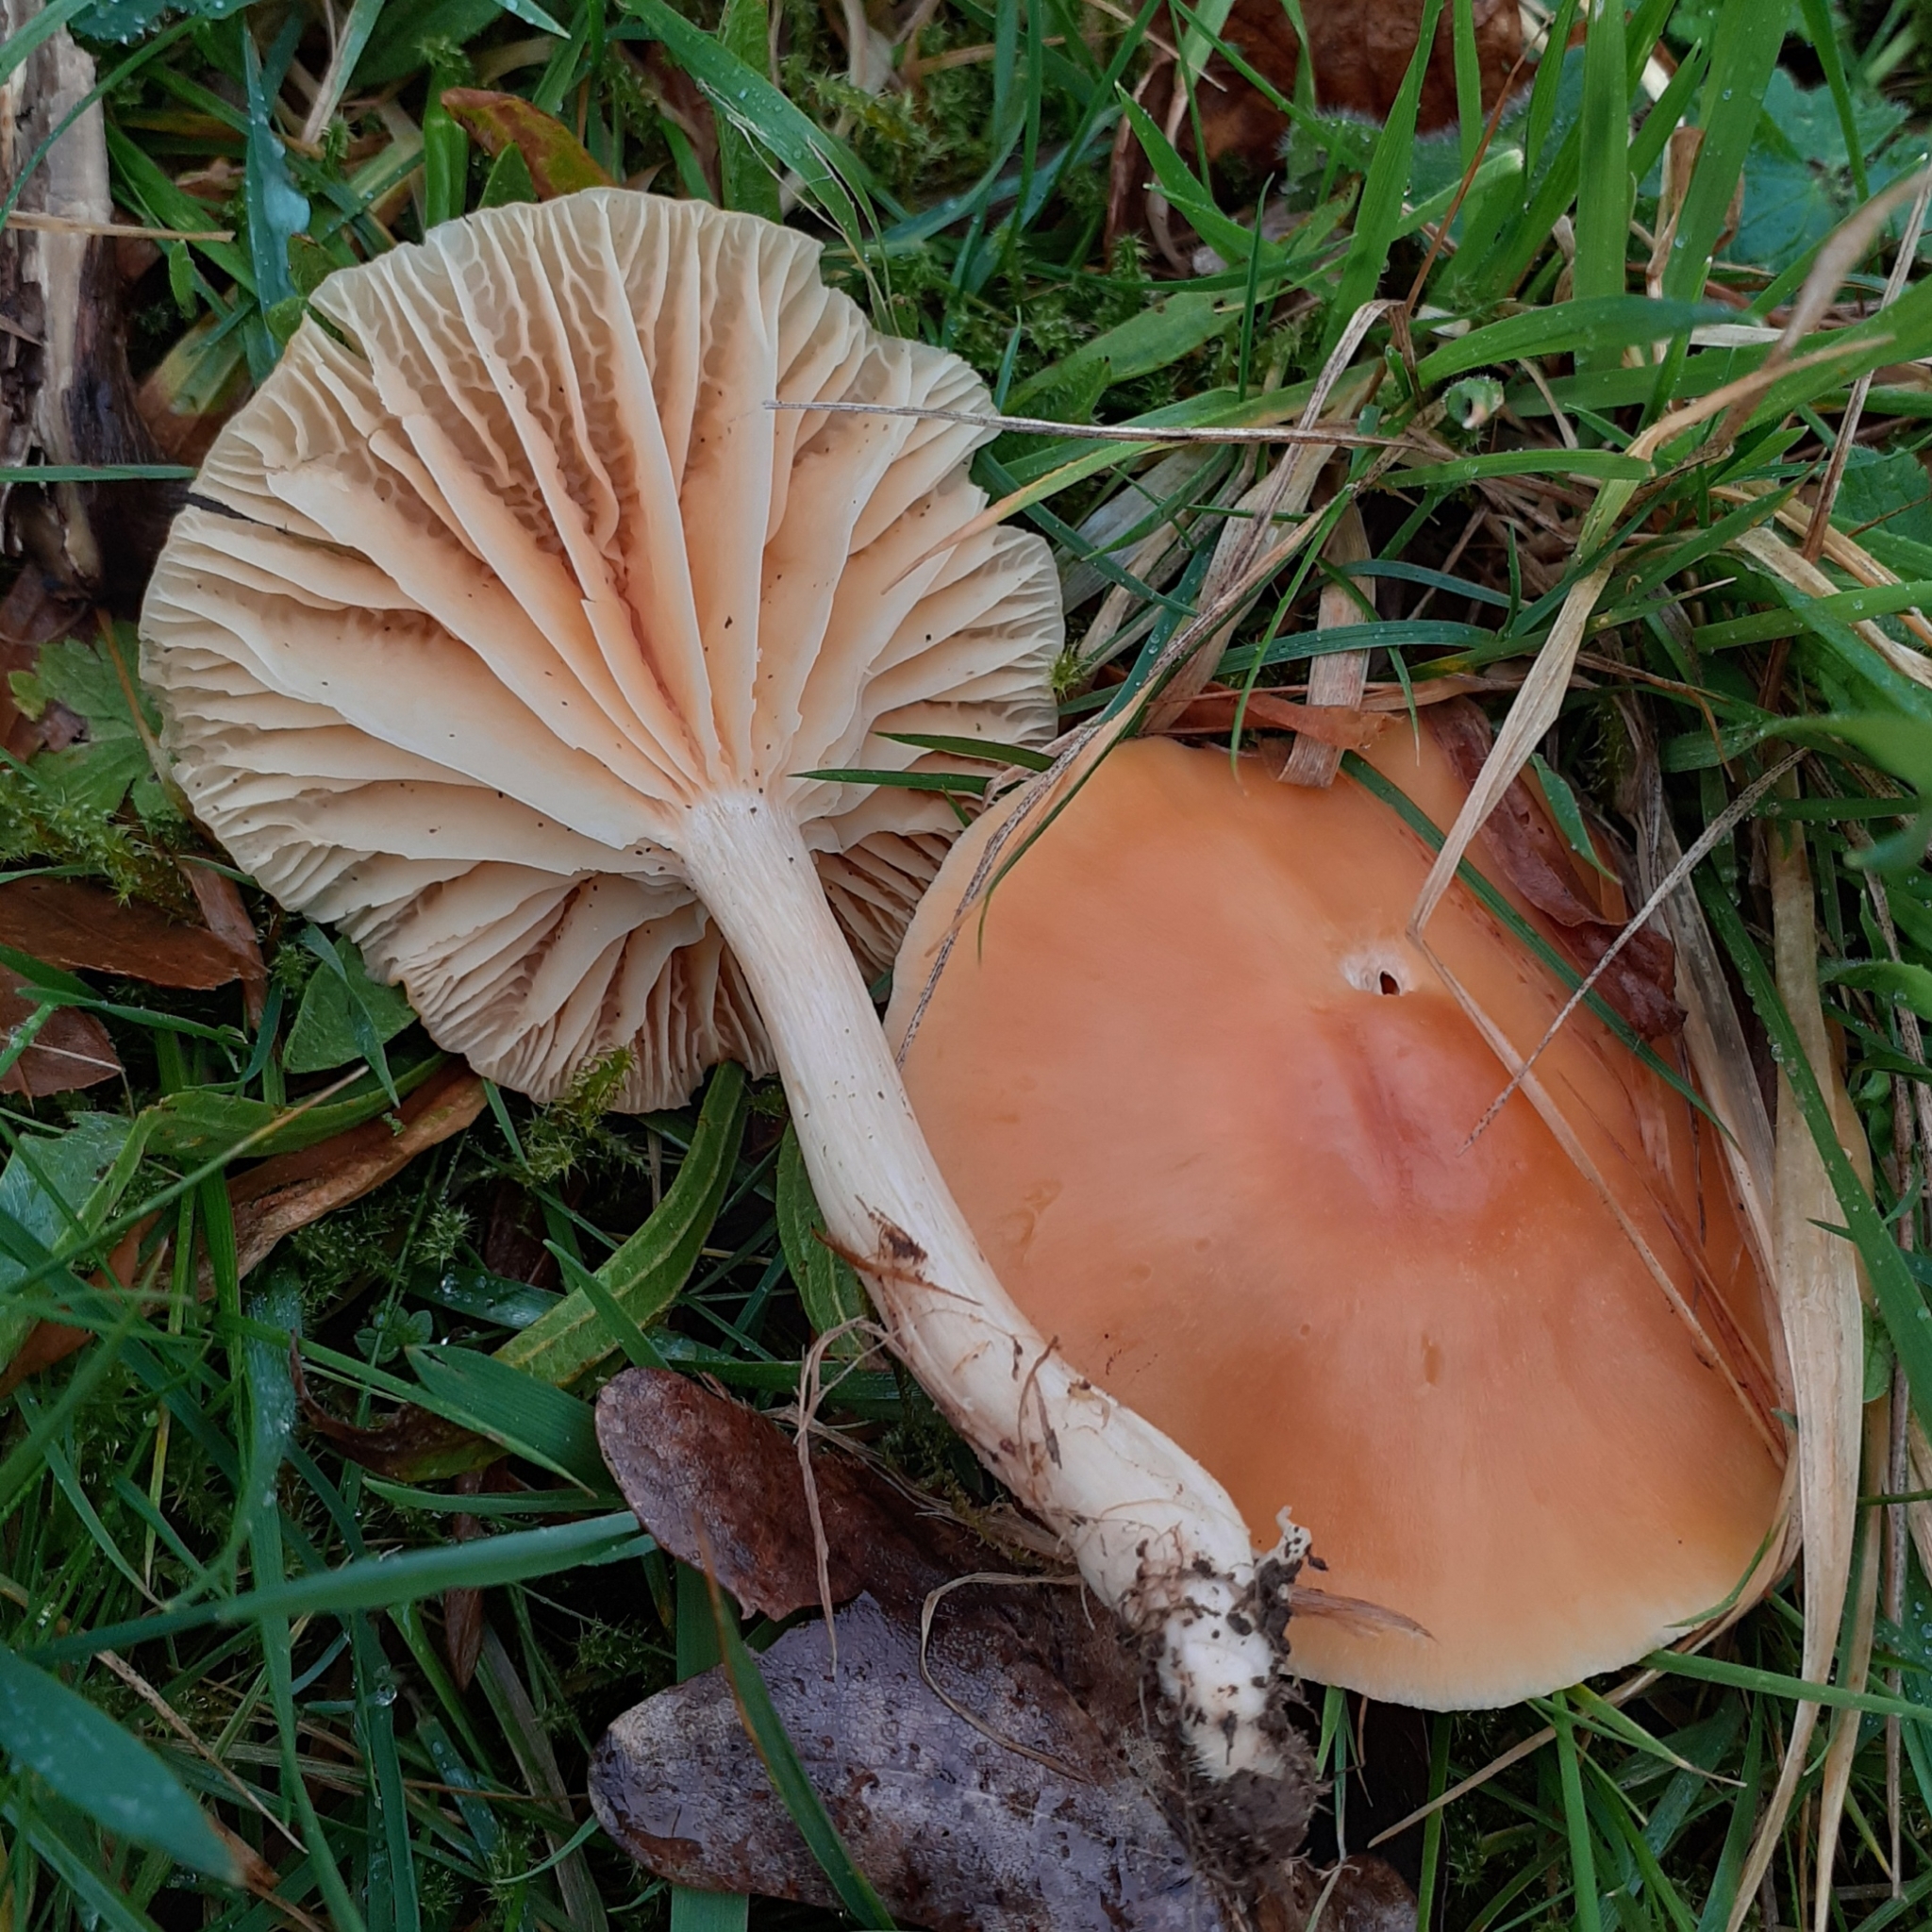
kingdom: Fungi
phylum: Basidiomycota
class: Agaricomycetes
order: Agaricales
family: Hygrophoraceae
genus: Cuphophyllus
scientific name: Cuphophyllus pratensis
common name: Meadow waxcap
